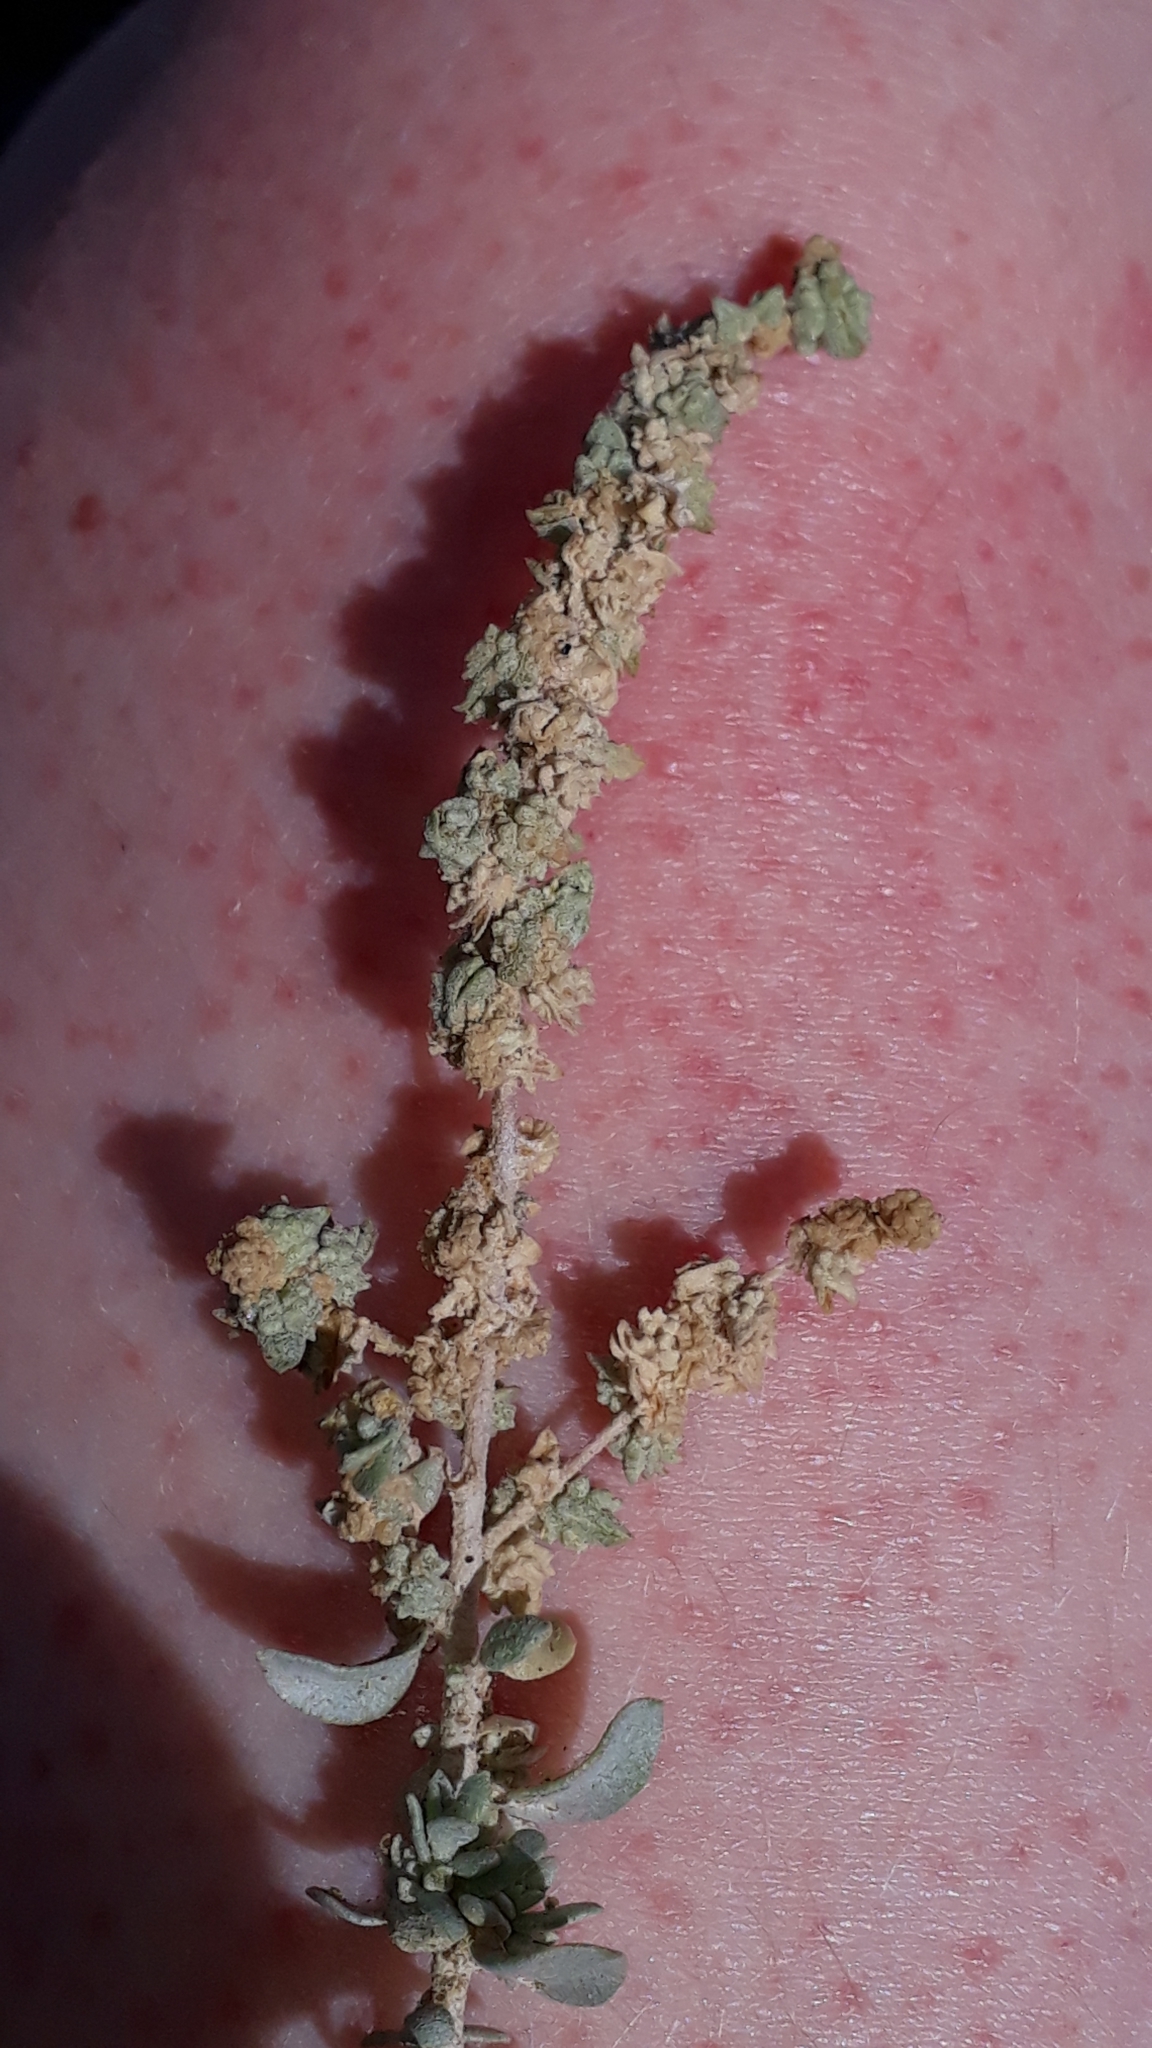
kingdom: Plantae
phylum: Tracheophyta
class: Magnoliopsida
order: Caryophyllales
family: Amaranthaceae
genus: Atriplex
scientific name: Atriplex glauca
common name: Waxy saltbush
